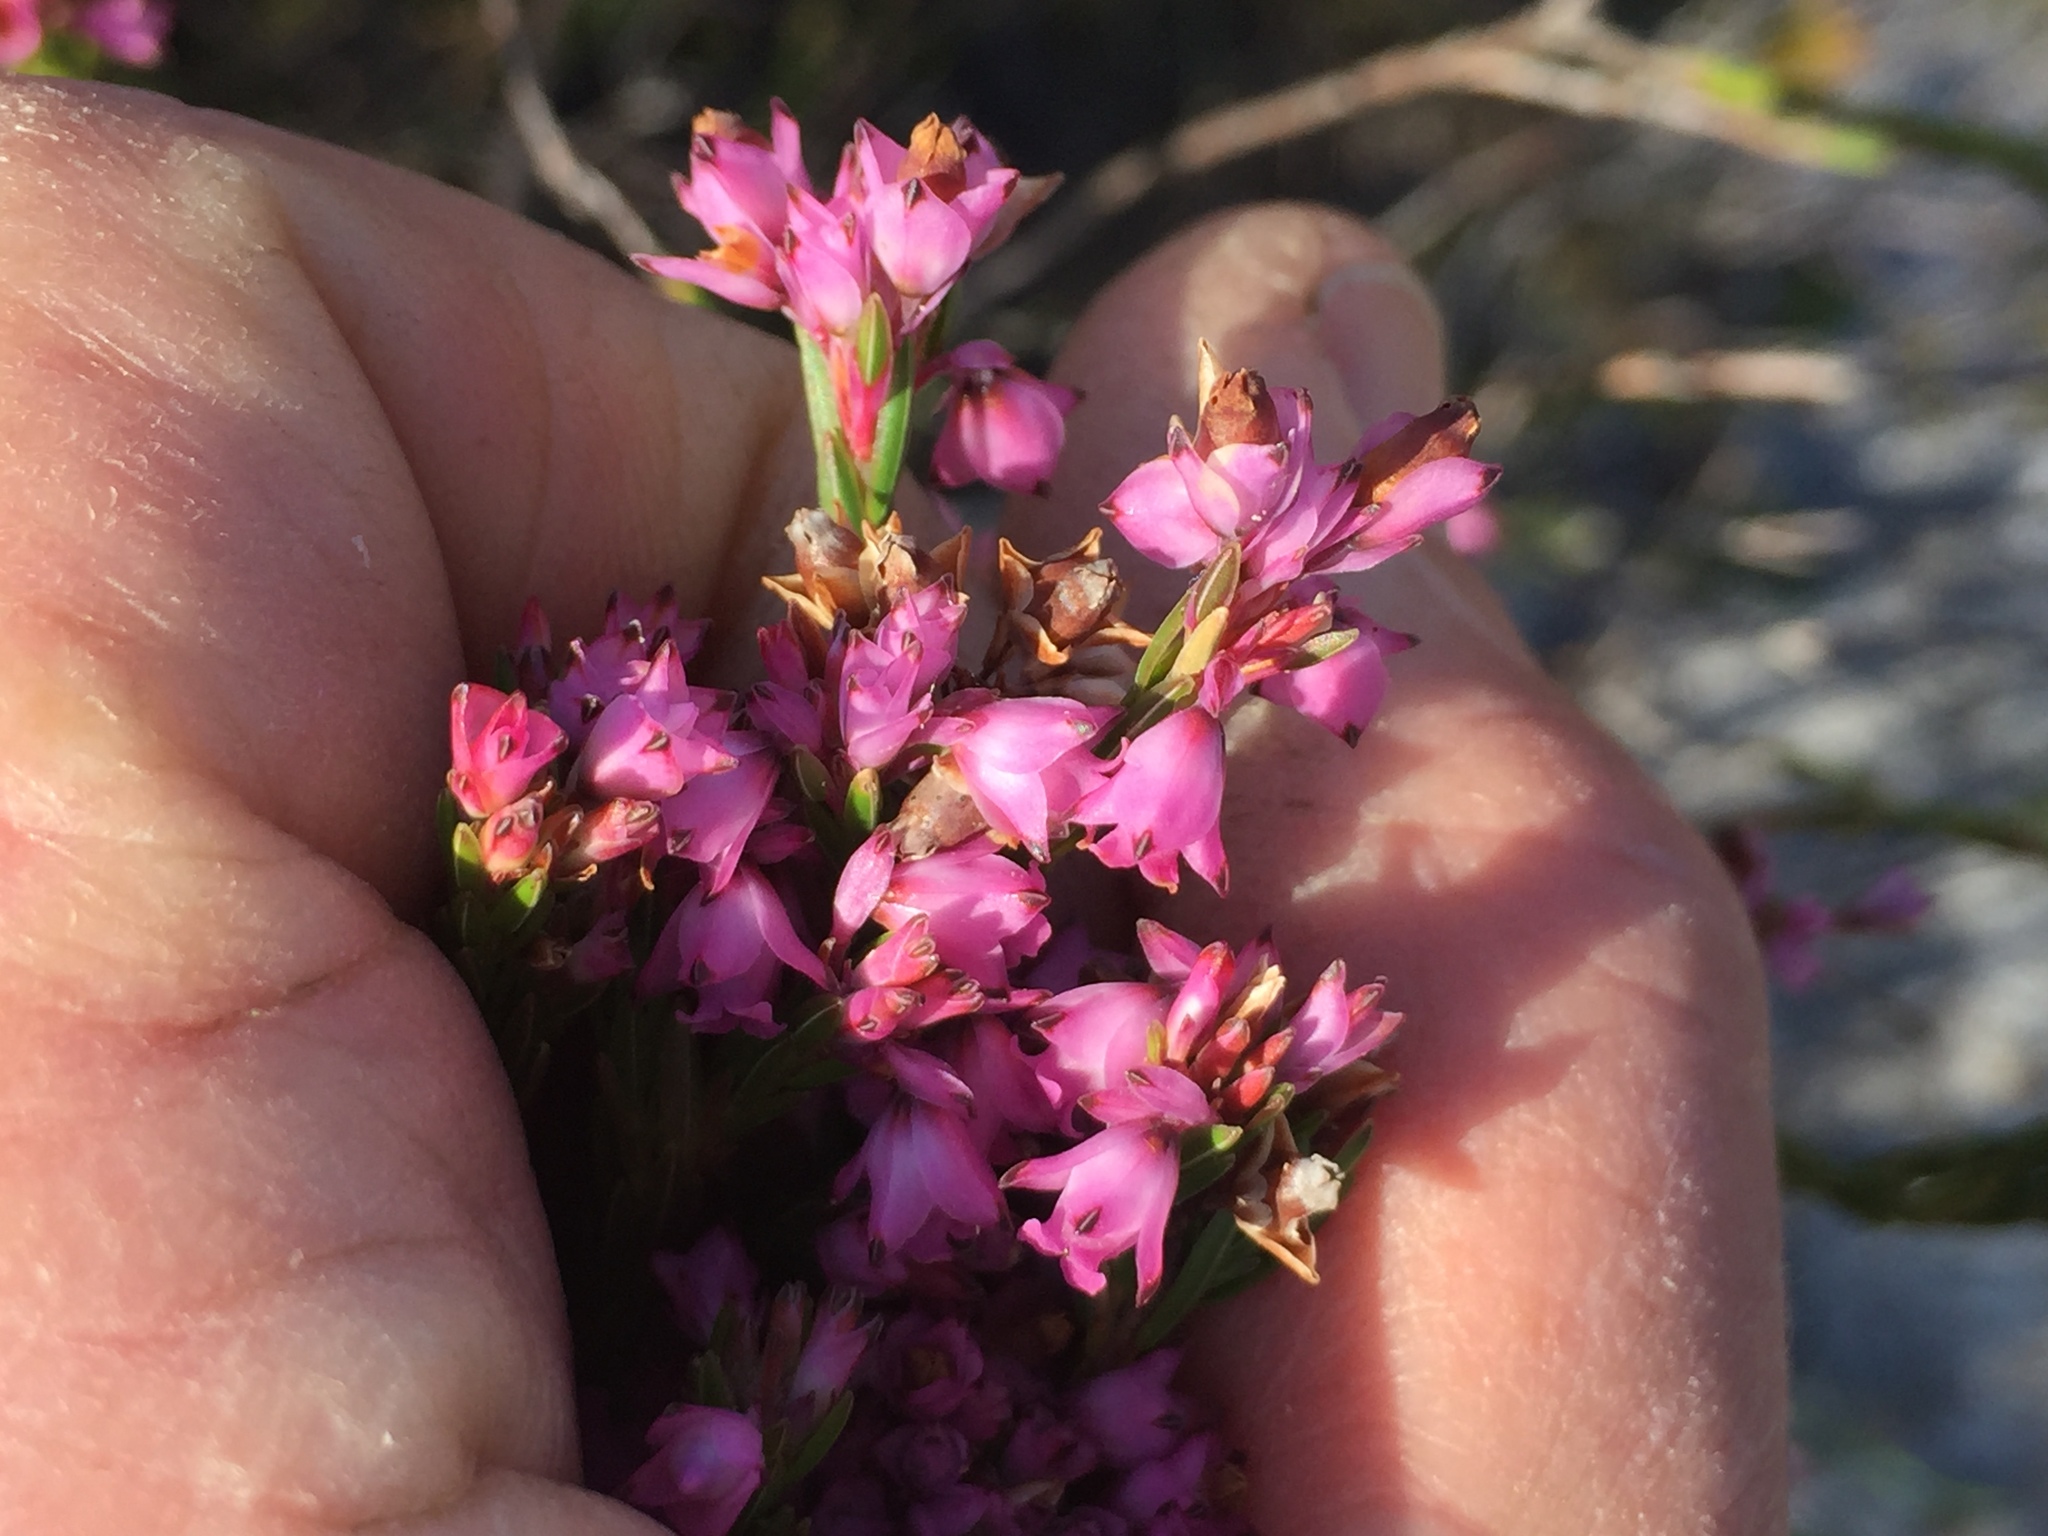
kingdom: Plantae
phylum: Tracheophyta
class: Magnoliopsida
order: Ericales
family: Ericaceae
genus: Erica
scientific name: Erica corifolia
